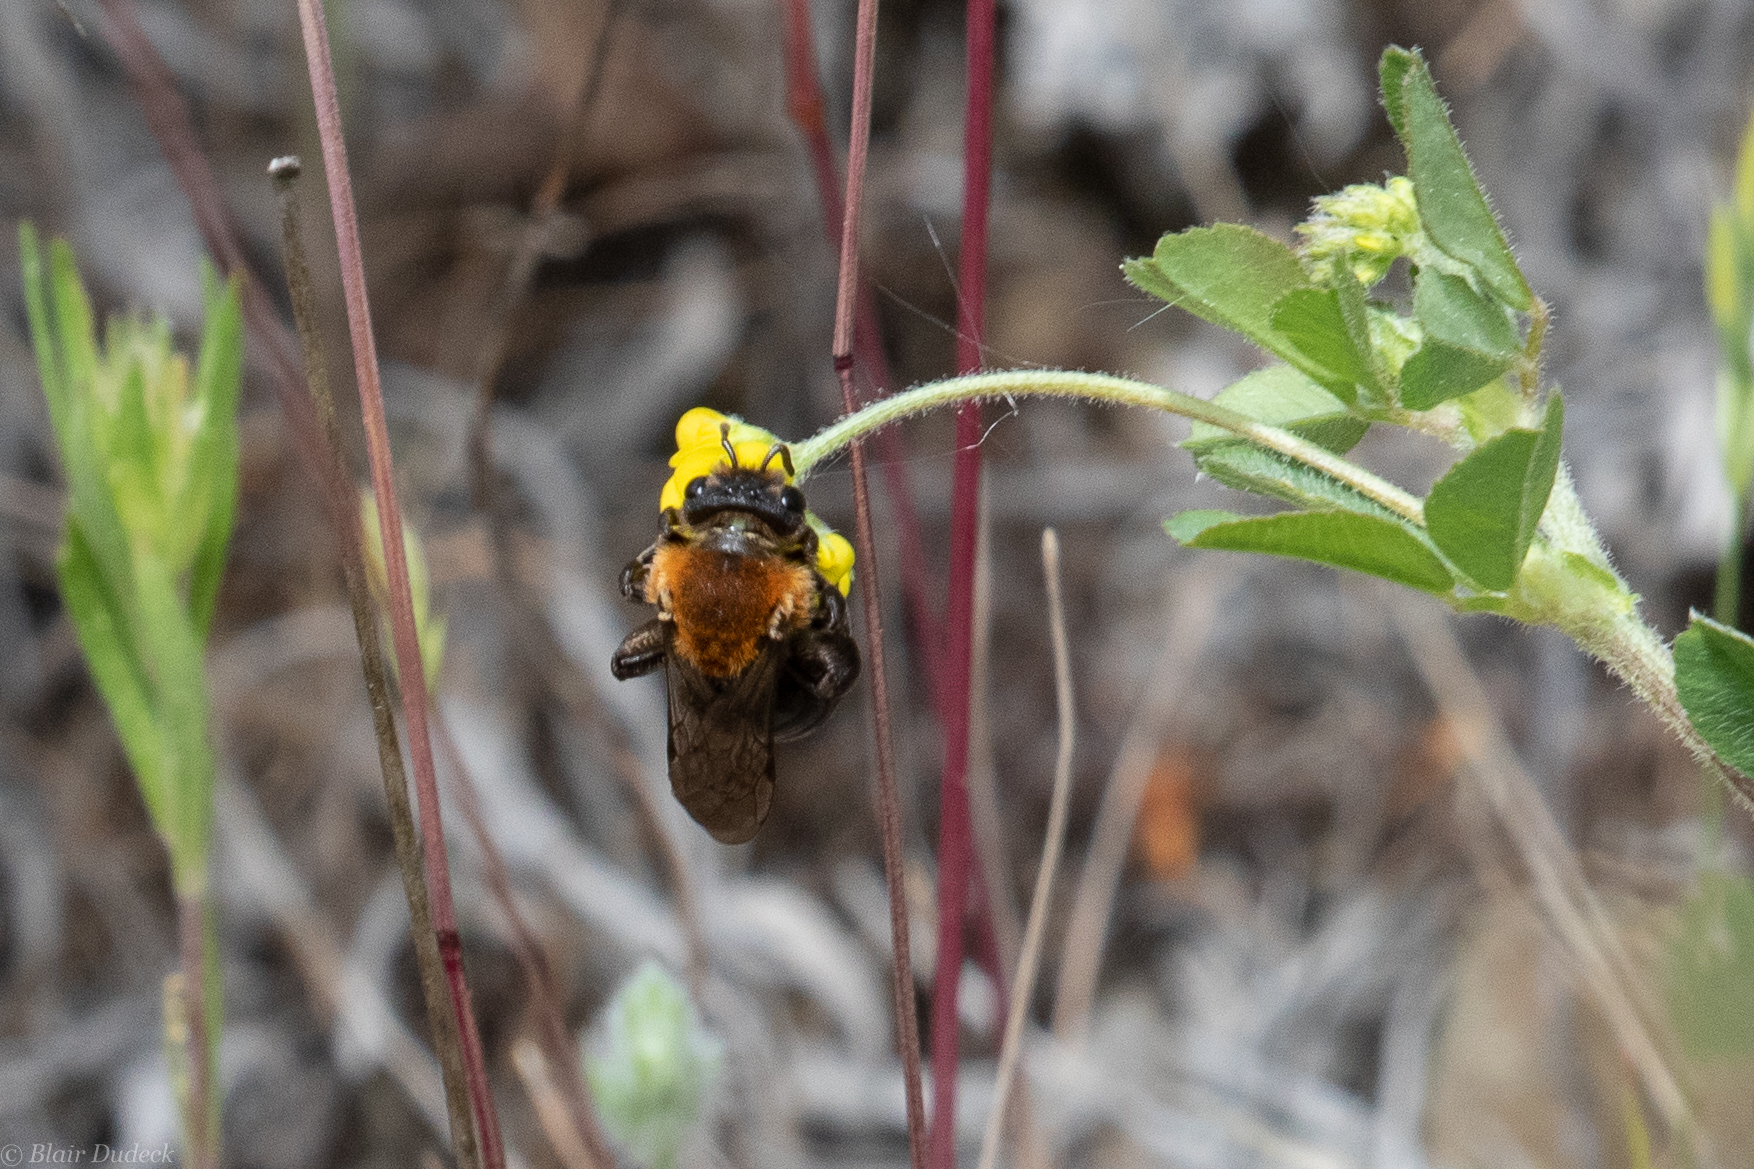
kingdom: Animalia
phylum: Arthropoda
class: Insecta
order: Hymenoptera
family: Andrenidae
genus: Andrena
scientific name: Andrena amphibola
